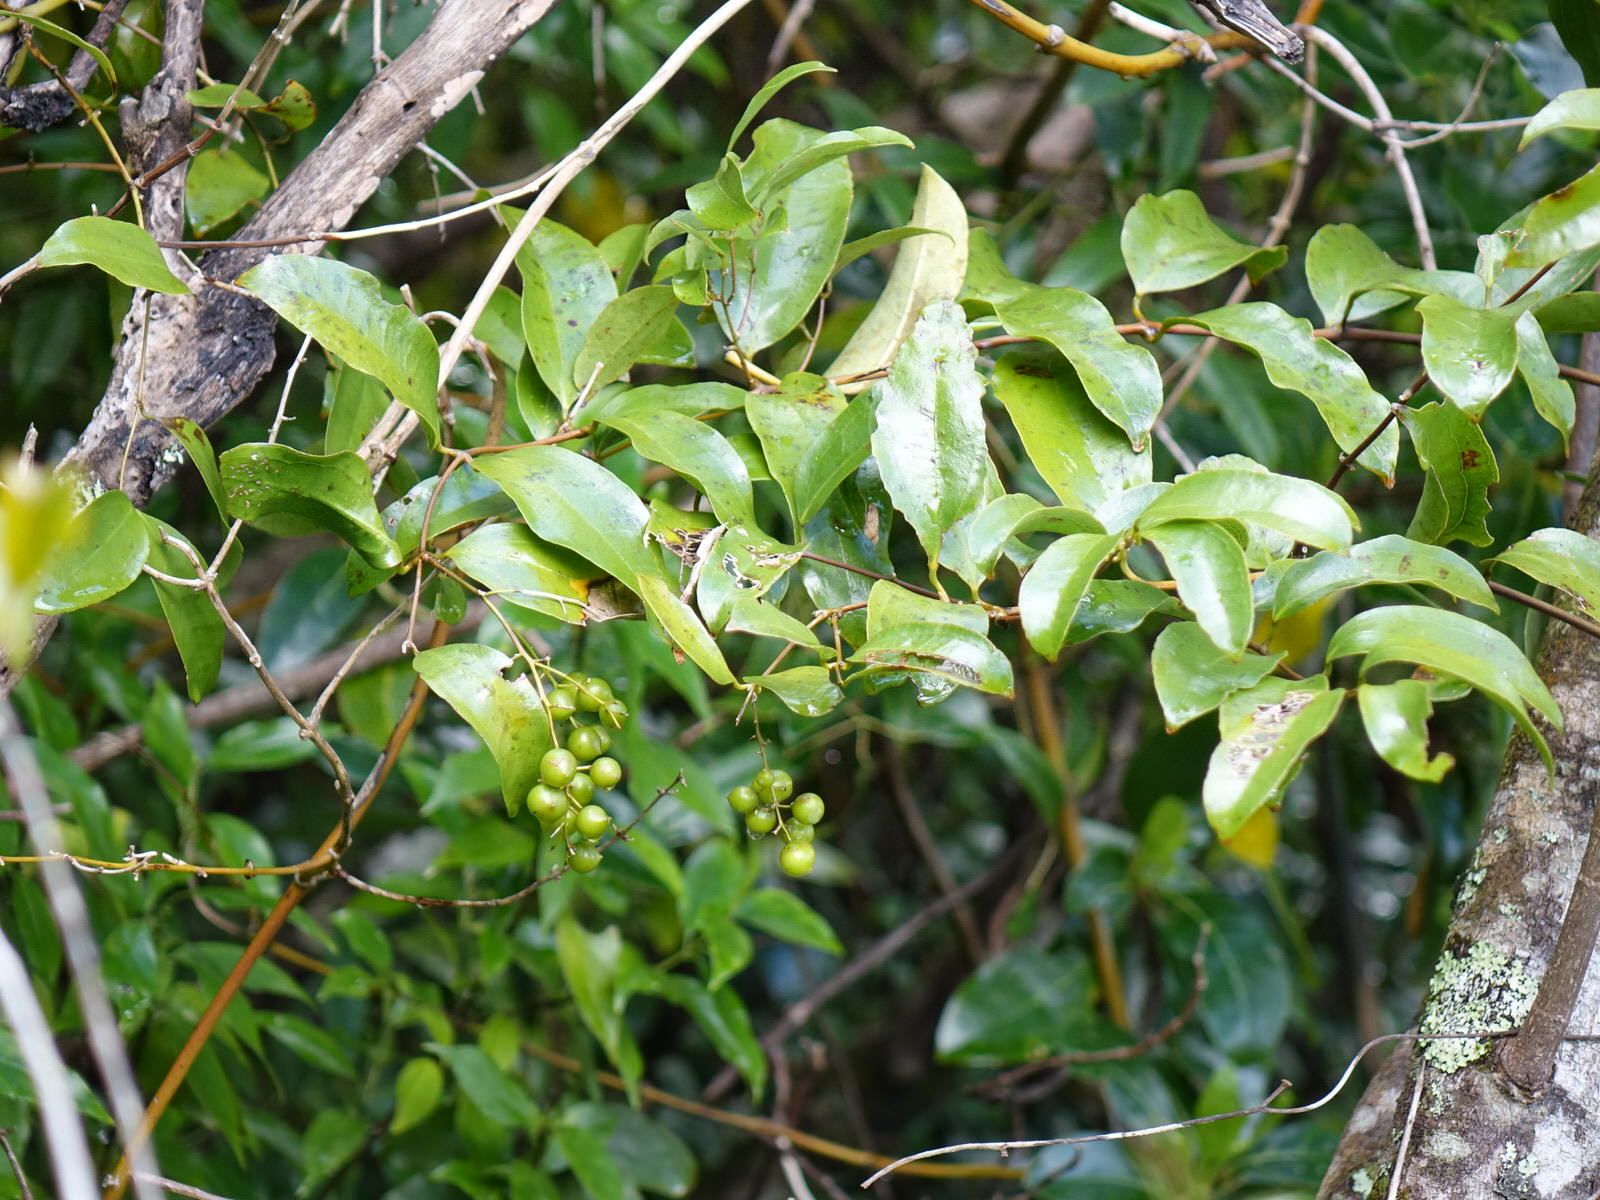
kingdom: Plantae
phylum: Tracheophyta
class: Liliopsida
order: Liliales
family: Ripogonaceae
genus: Ripogonum
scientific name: Ripogonum scandens
